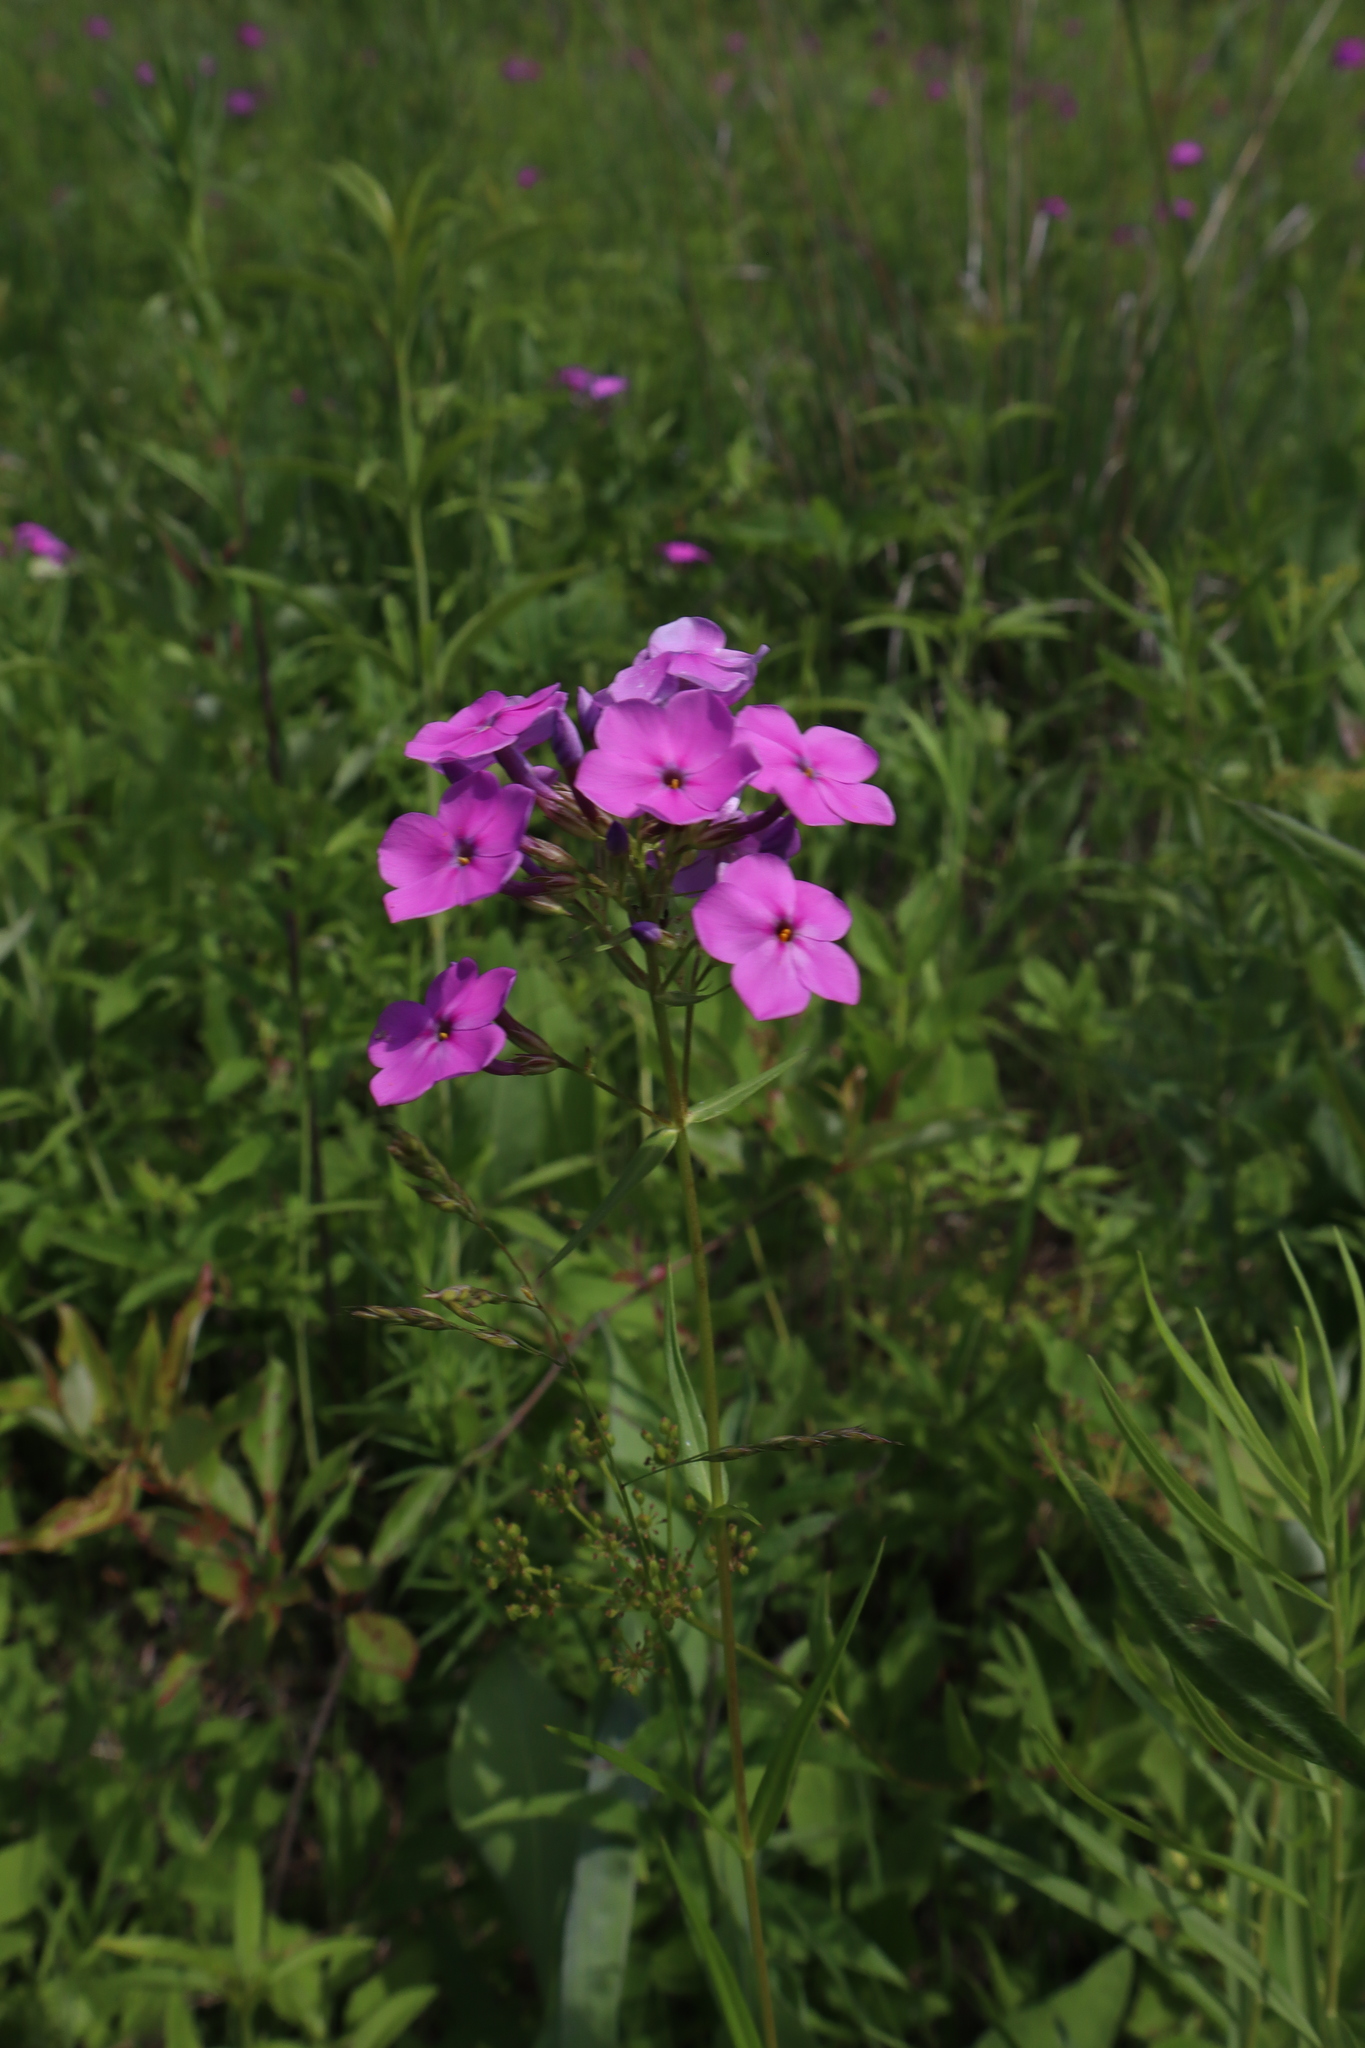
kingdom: Plantae
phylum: Tracheophyta
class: Magnoliopsida
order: Ericales
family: Polemoniaceae
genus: Phlox
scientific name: Phlox glaberrima
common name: Smooth phlox
